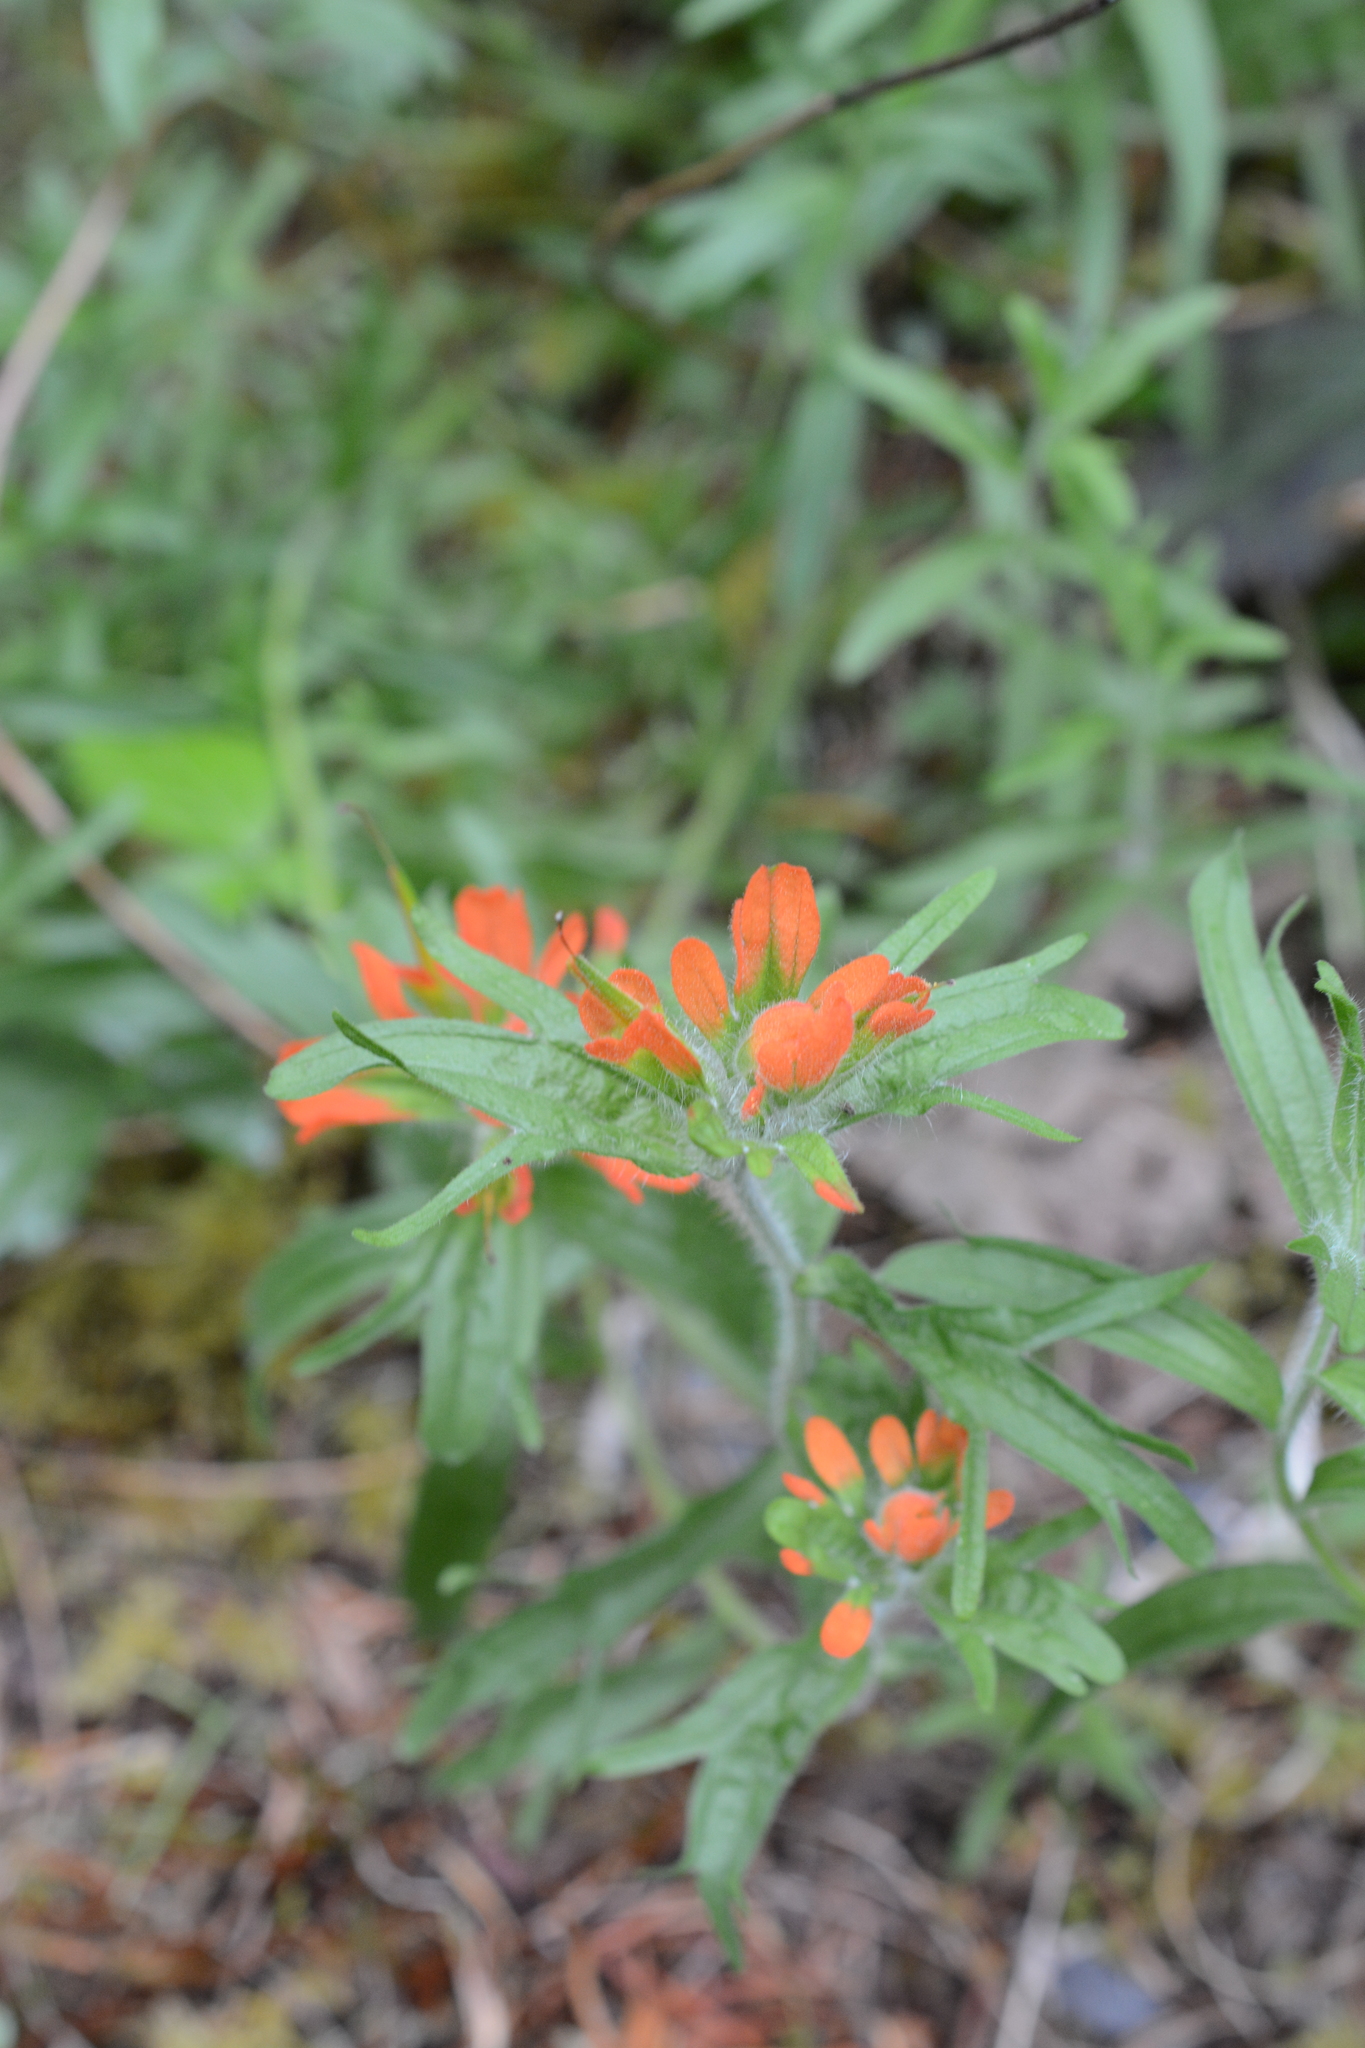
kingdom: Plantae
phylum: Tracheophyta
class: Magnoliopsida
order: Lamiales
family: Orobanchaceae
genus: Castilleja
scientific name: Castilleja hispida
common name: Bristly paintbrush
